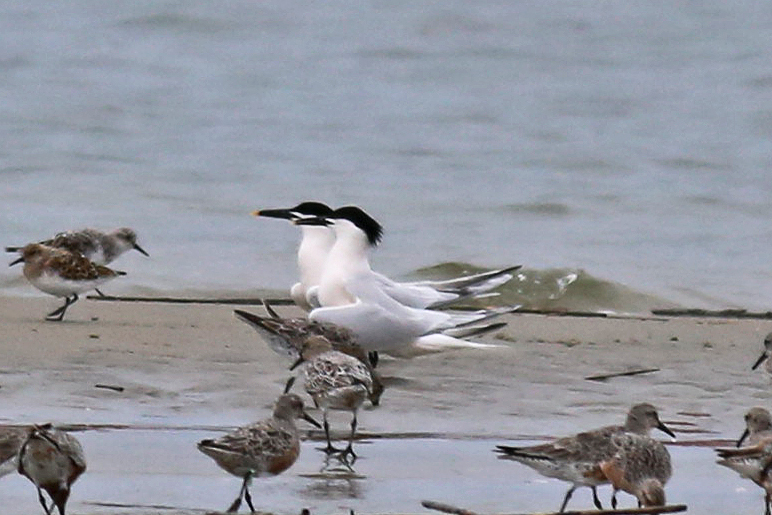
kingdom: Animalia
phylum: Chordata
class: Aves
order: Charadriiformes
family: Laridae
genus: Thalasseus
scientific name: Thalasseus sandvicensis
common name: Sandwich tern
